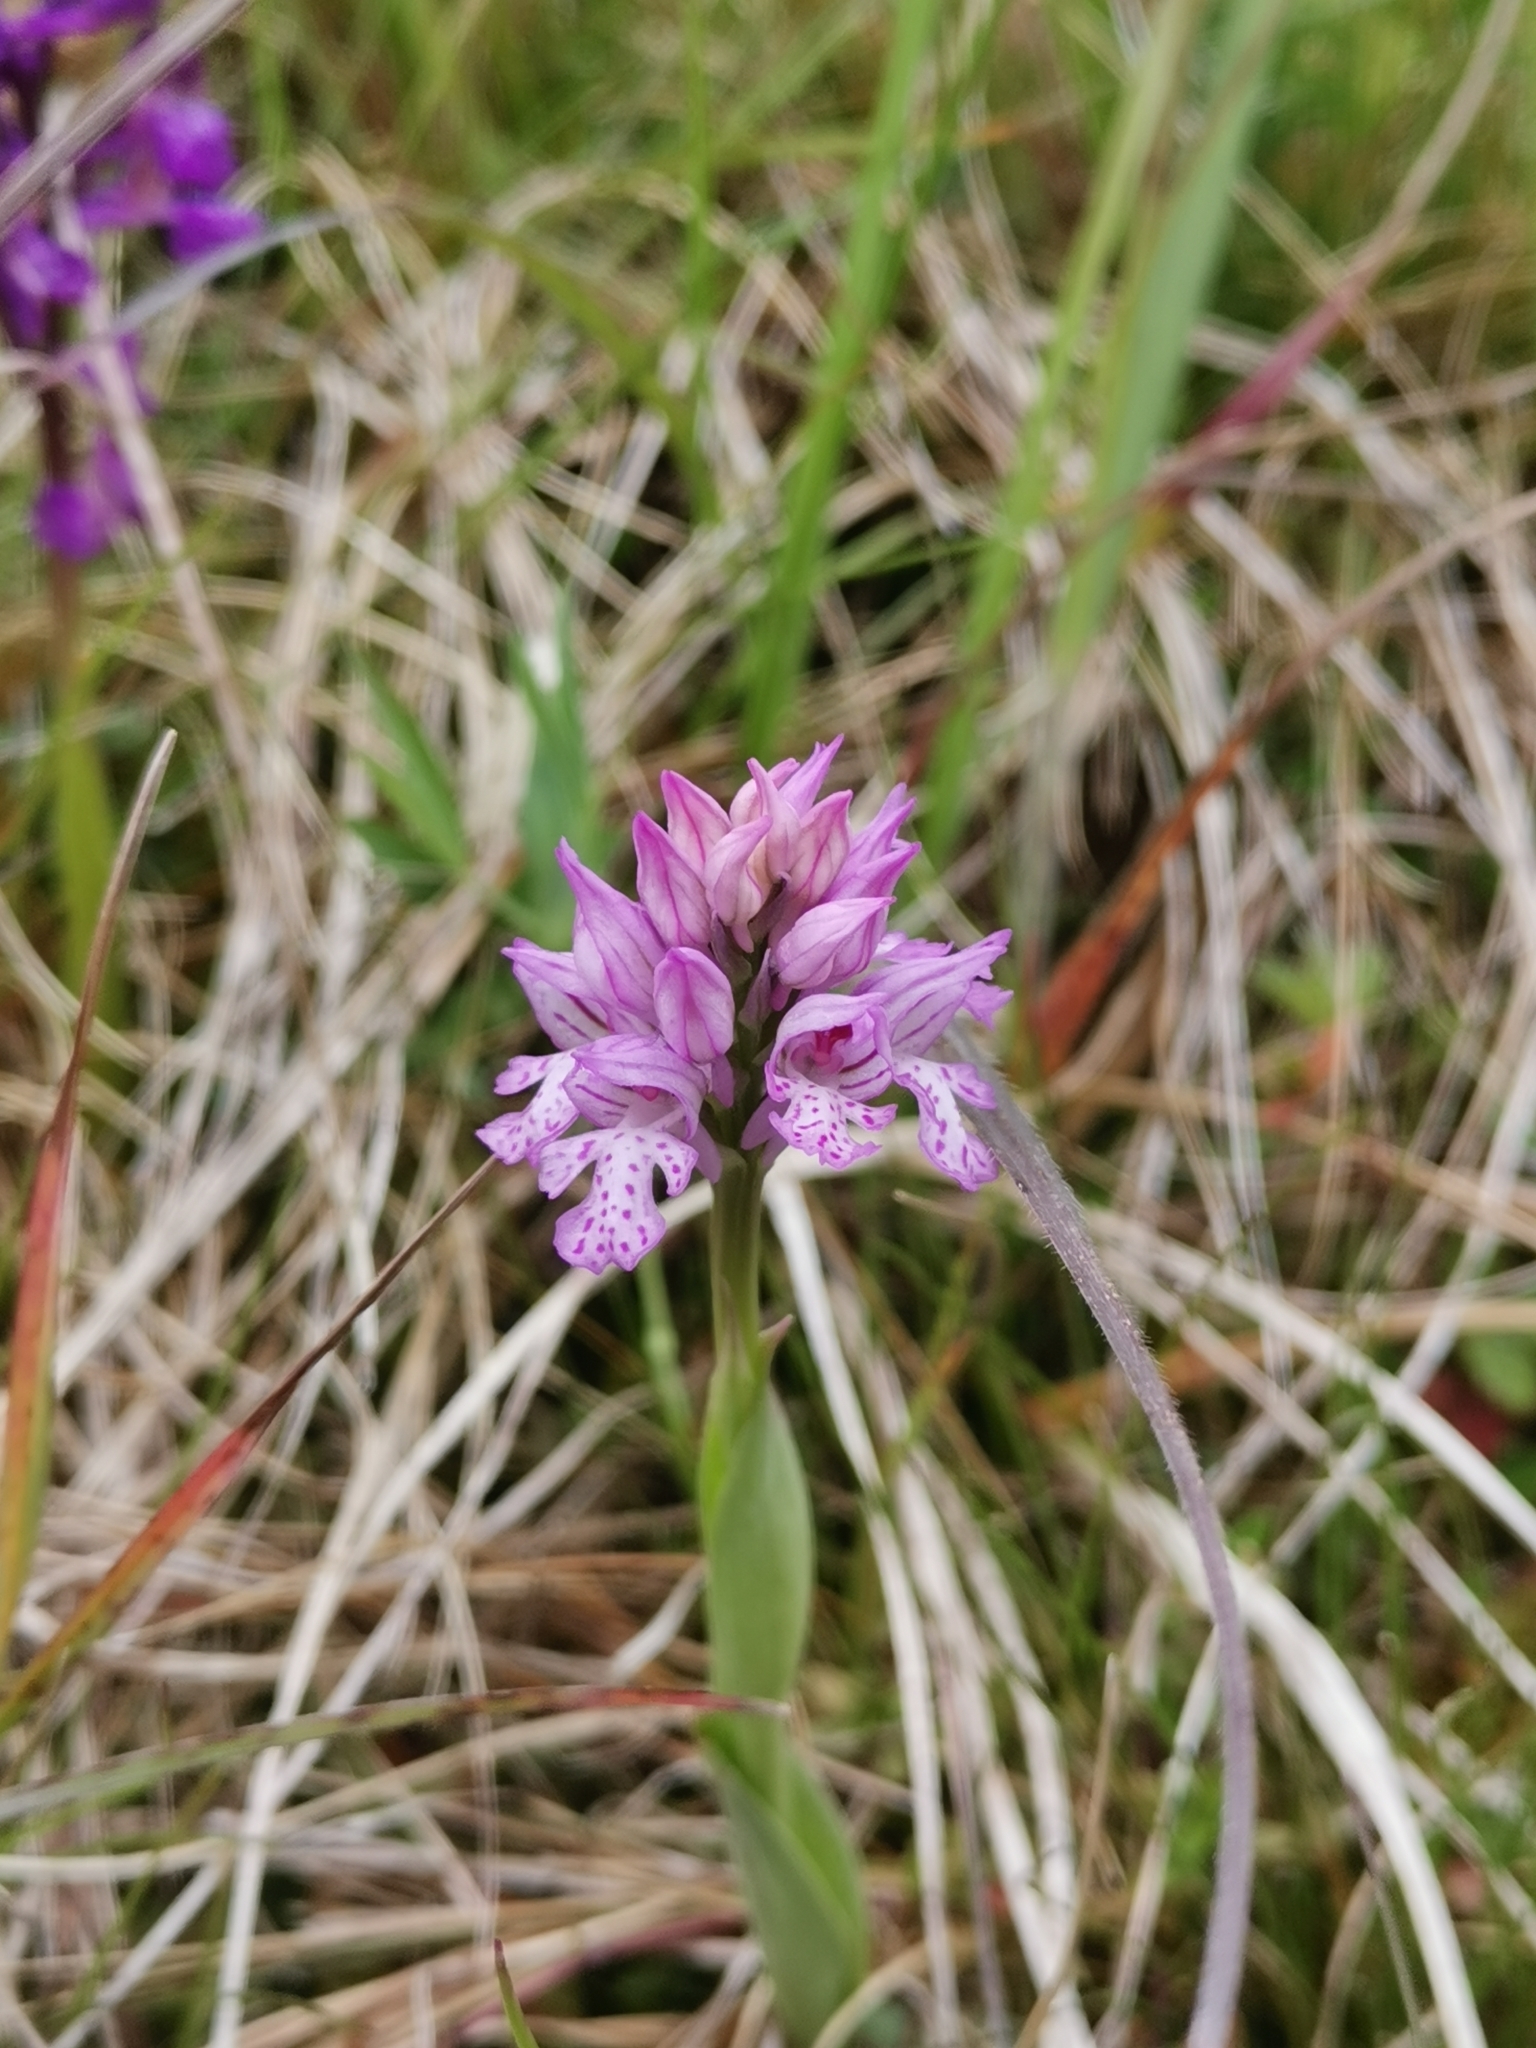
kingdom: Plantae
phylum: Tracheophyta
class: Liliopsida
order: Asparagales
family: Orchidaceae
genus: Neotinea
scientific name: Neotinea tridentata
